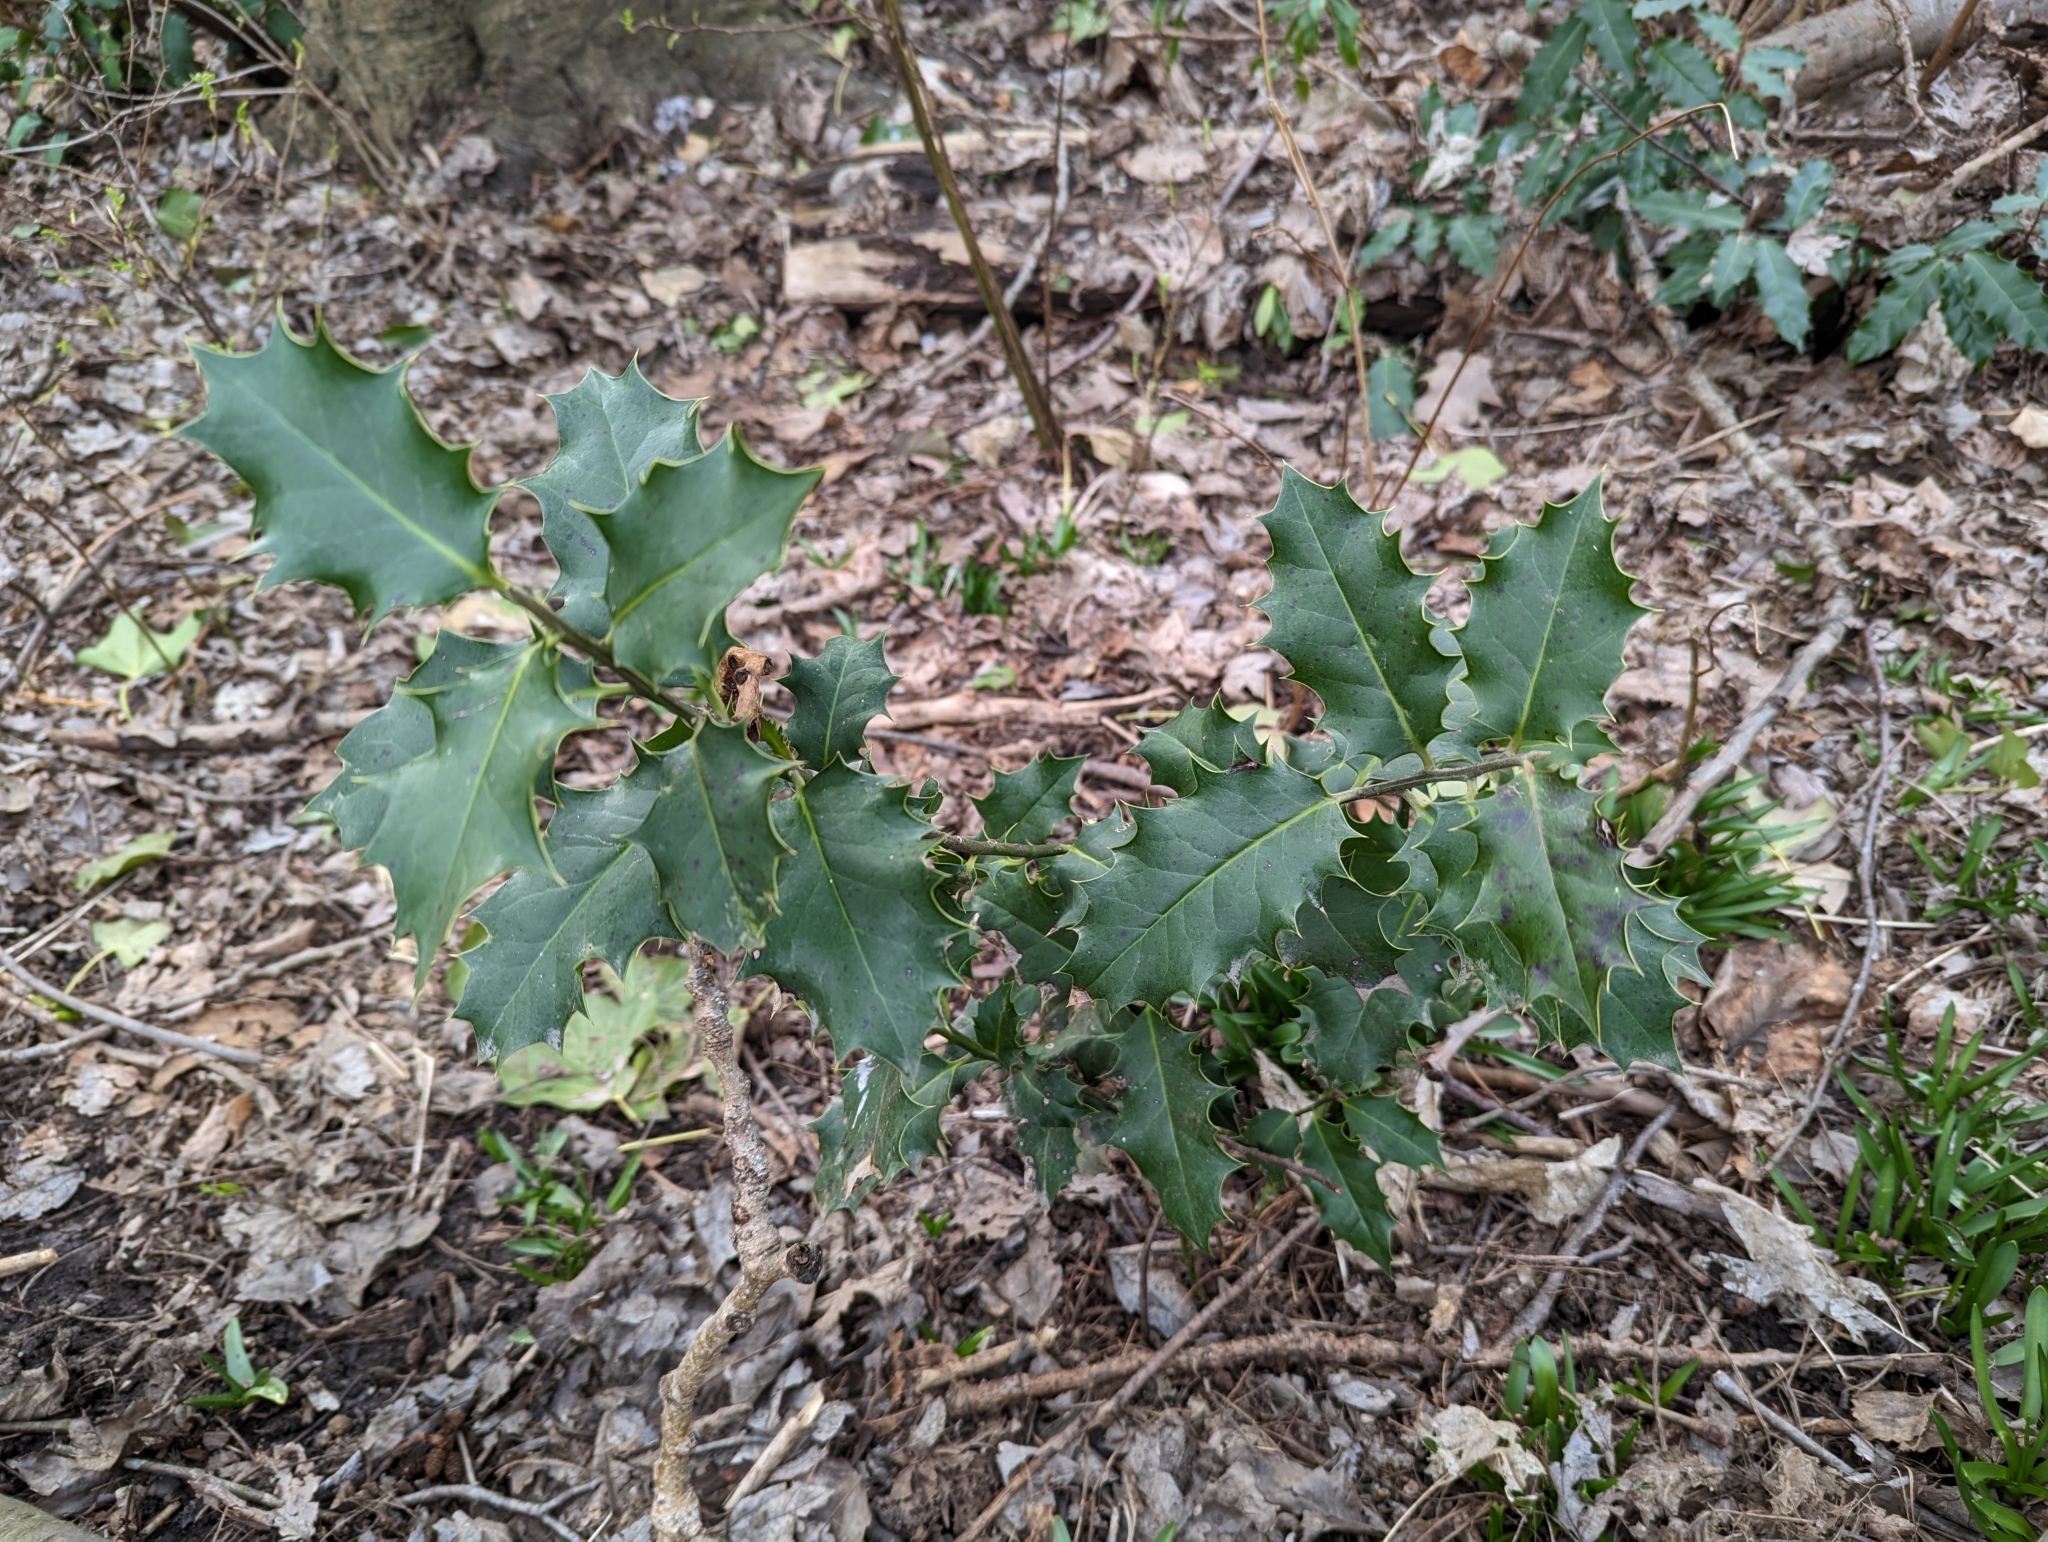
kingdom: Plantae
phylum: Tracheophyta
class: Magnoliopsida
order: Aquifoliales
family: Aquifoliaceae
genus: Ilex
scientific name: Ilex aquifolium
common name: English holly
